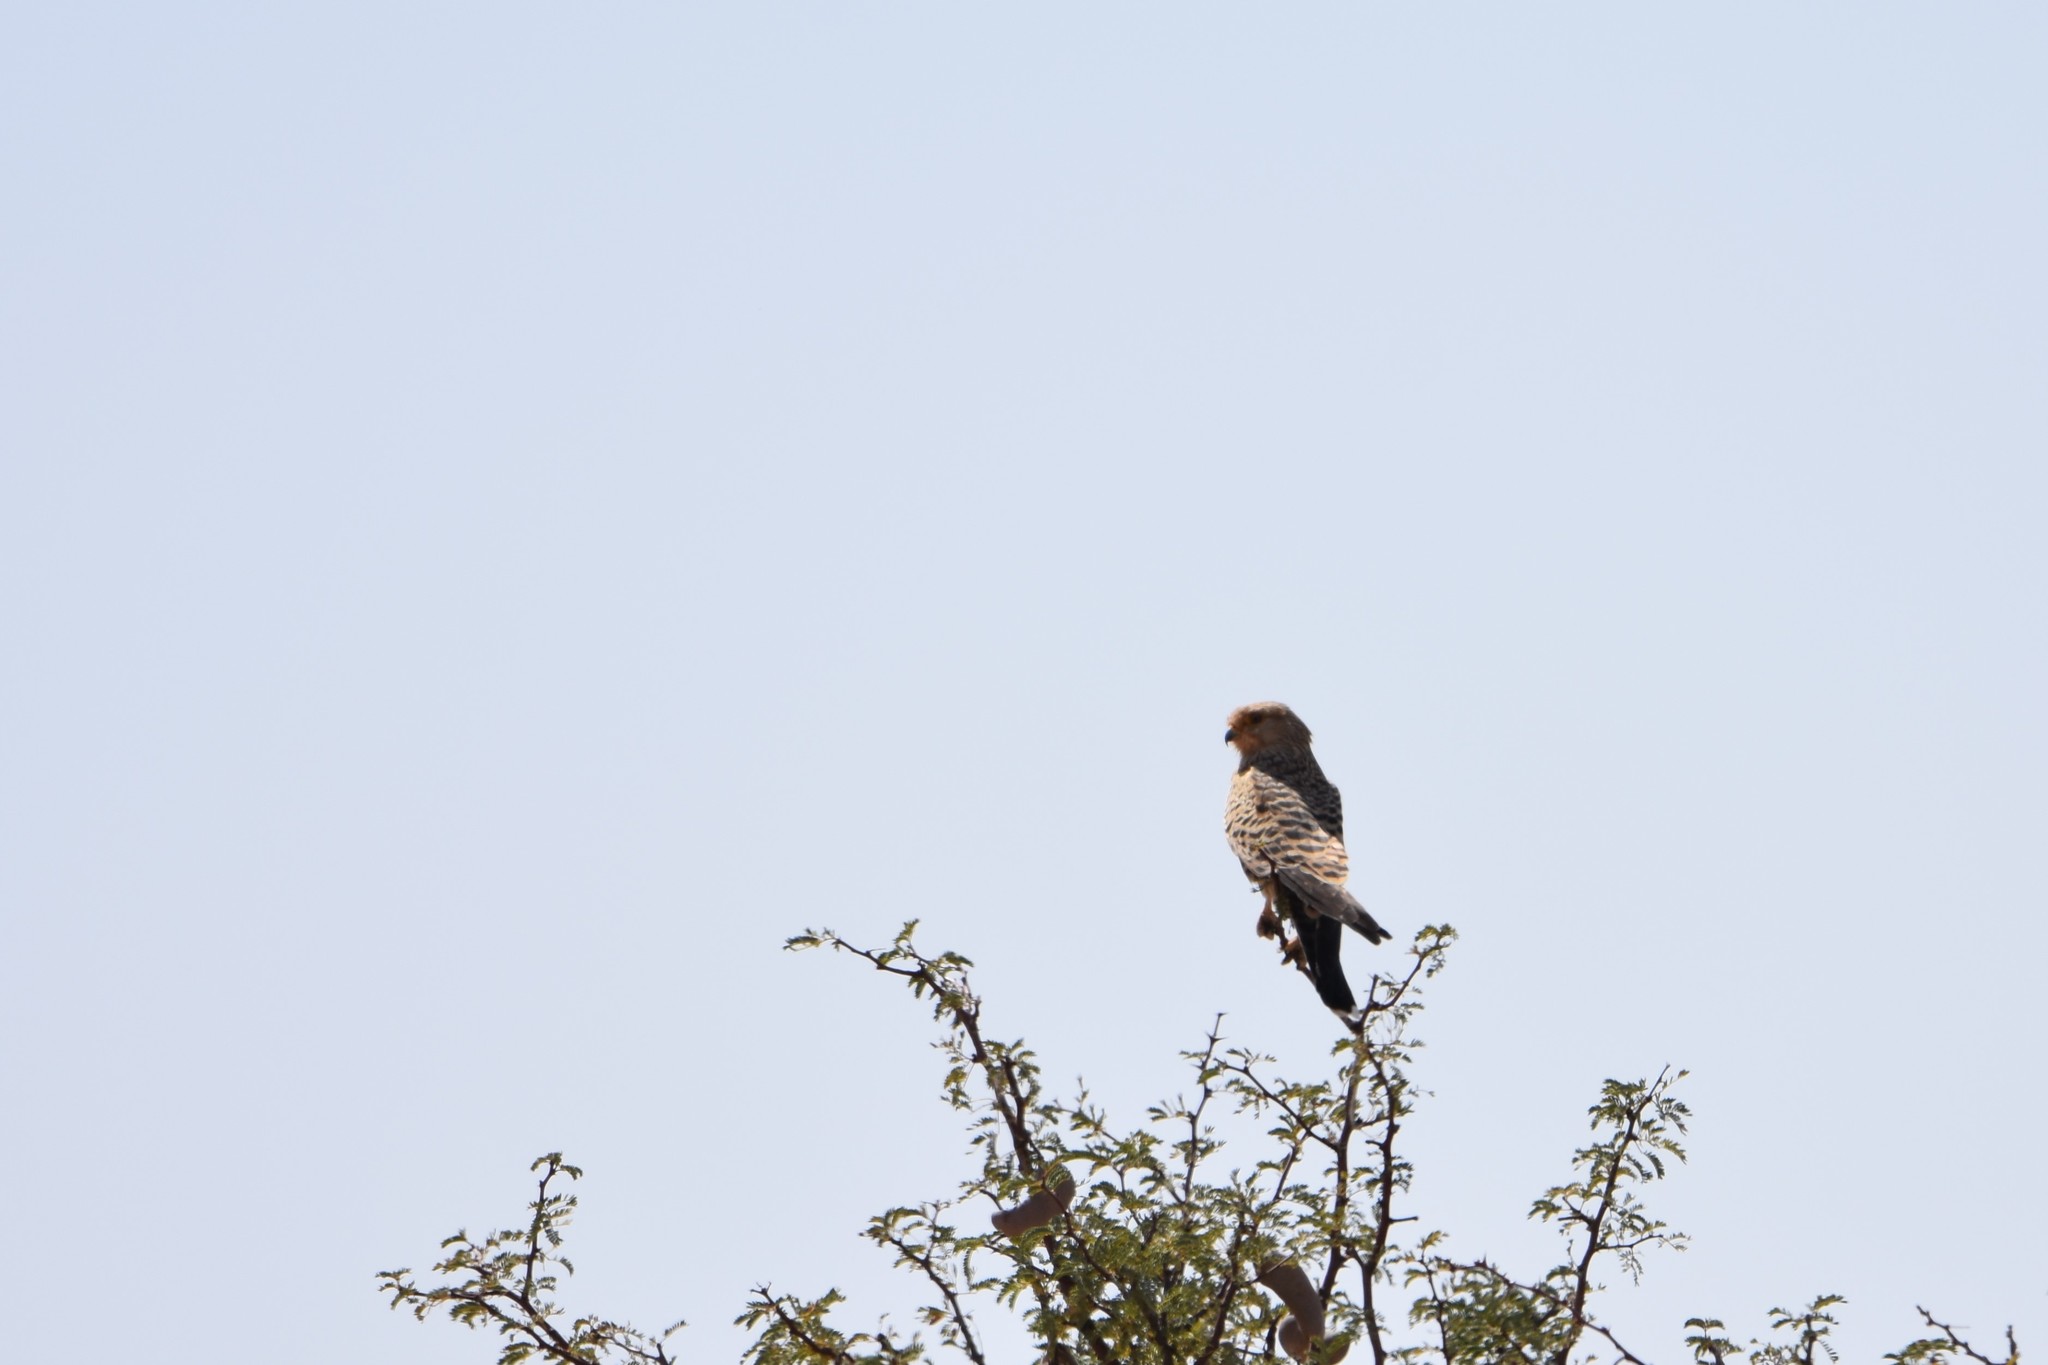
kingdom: Animalia
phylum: Chordata
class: Aves
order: Falconiformes
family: Falconidae
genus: Falco
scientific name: Falco rupicoloides
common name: Greater kestrel
